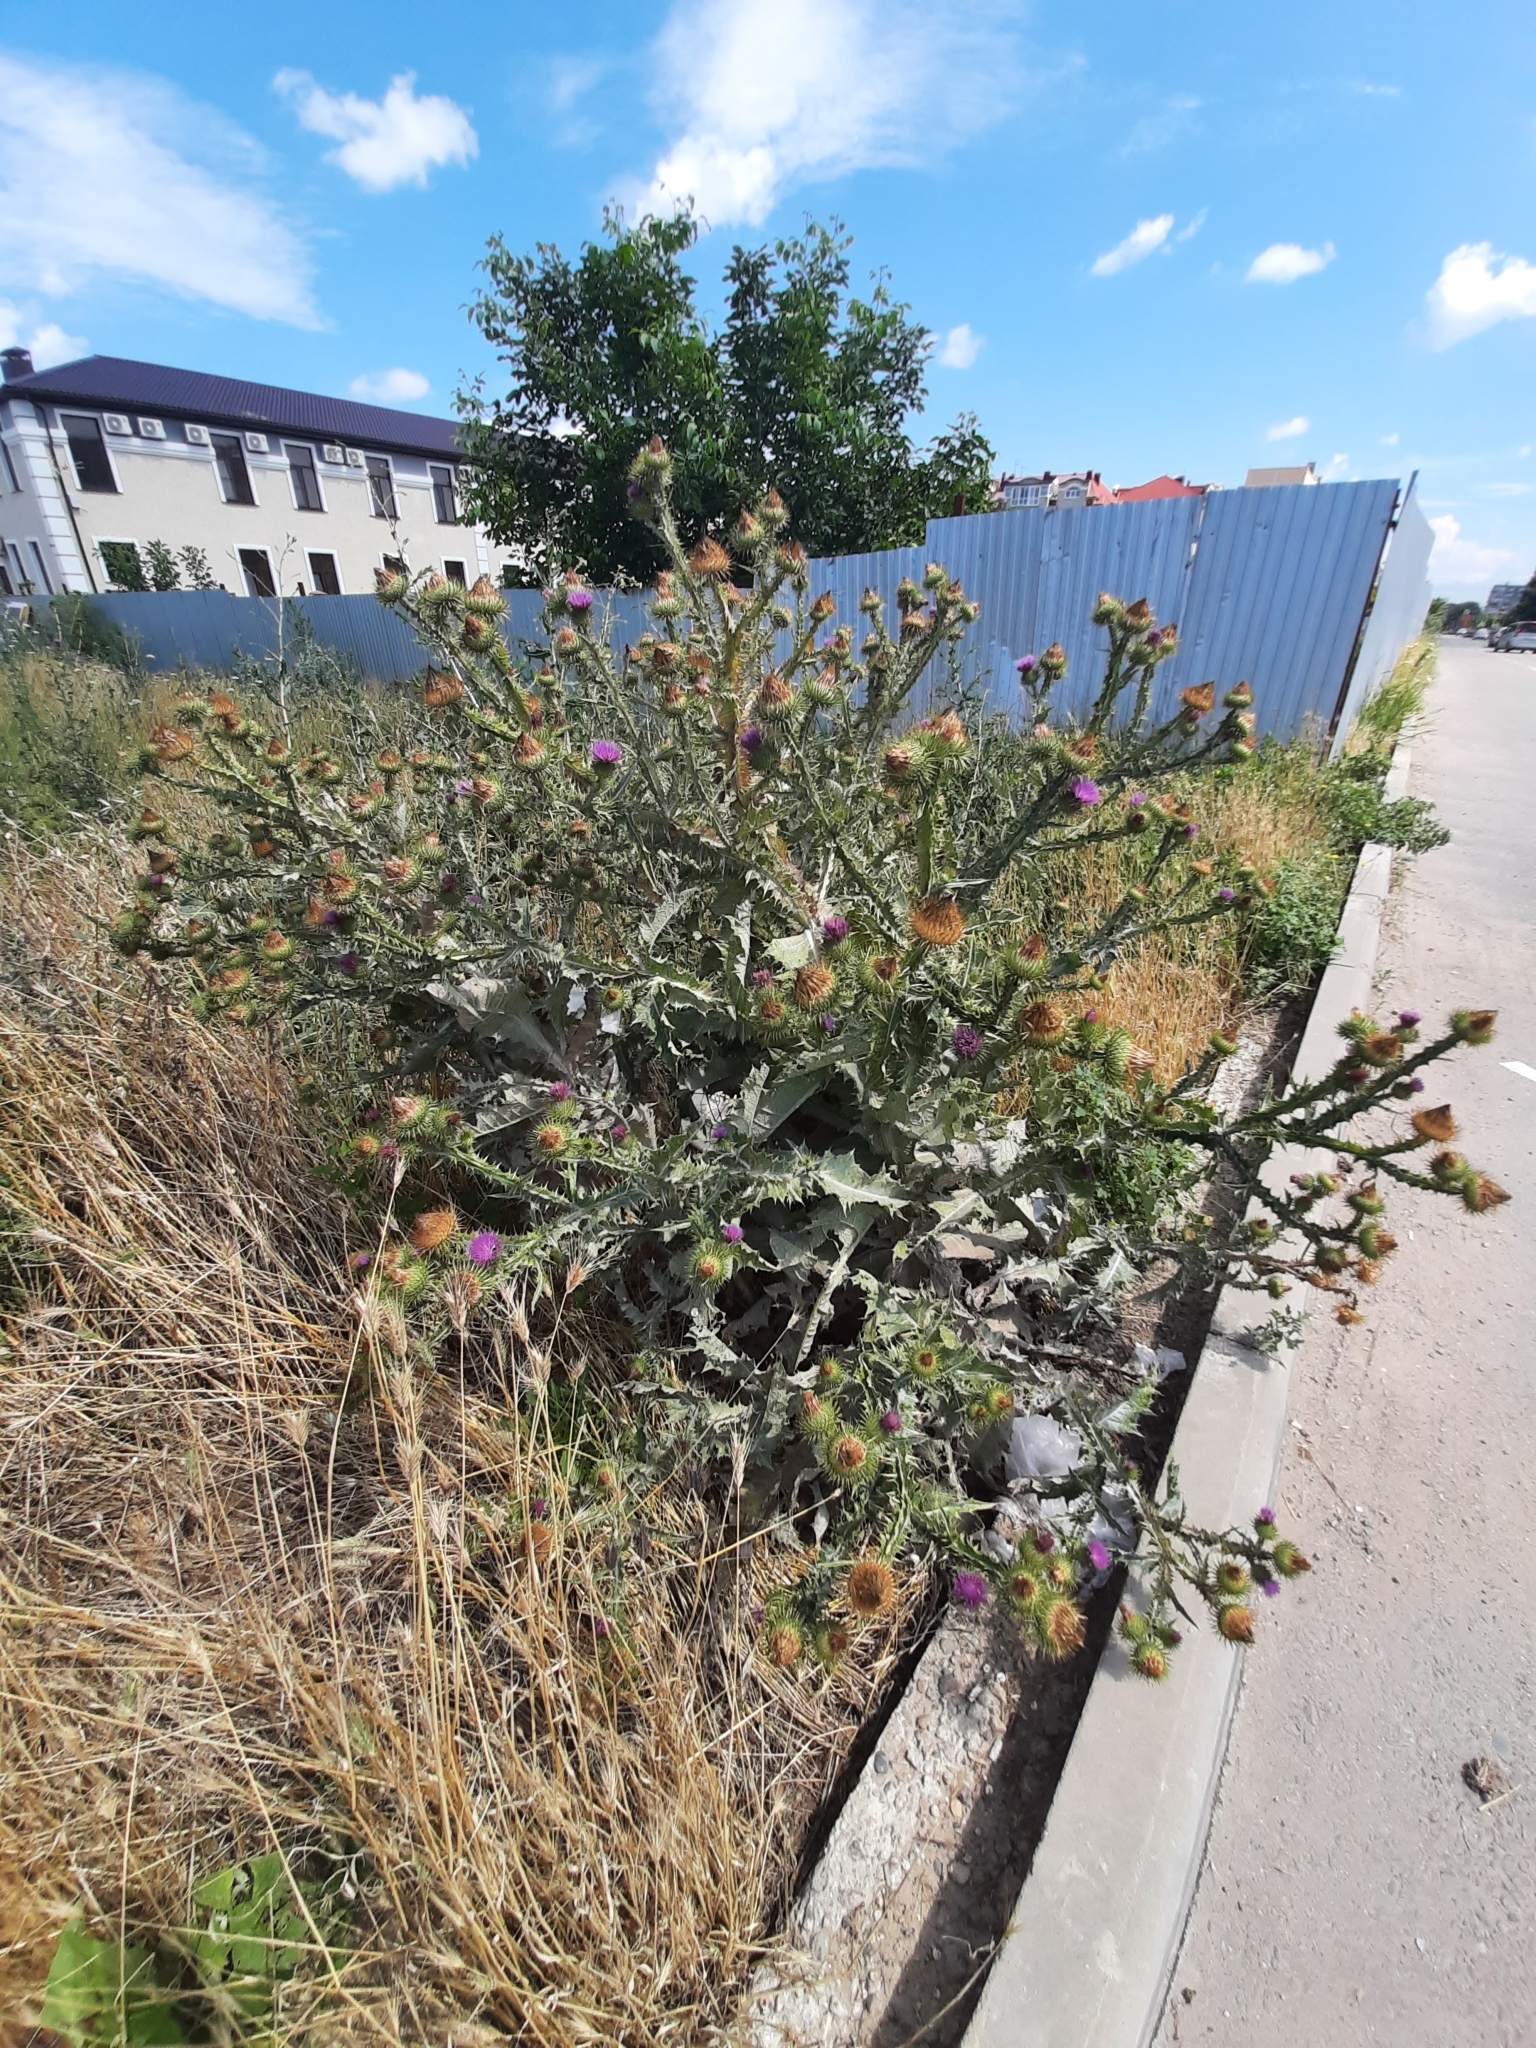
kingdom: Plantae
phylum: Tracheophyta
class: Magnoliopsida
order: Asterales
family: Asteraceae
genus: Onopordum
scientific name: Onopordum acanthium
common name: Scotch thistle
